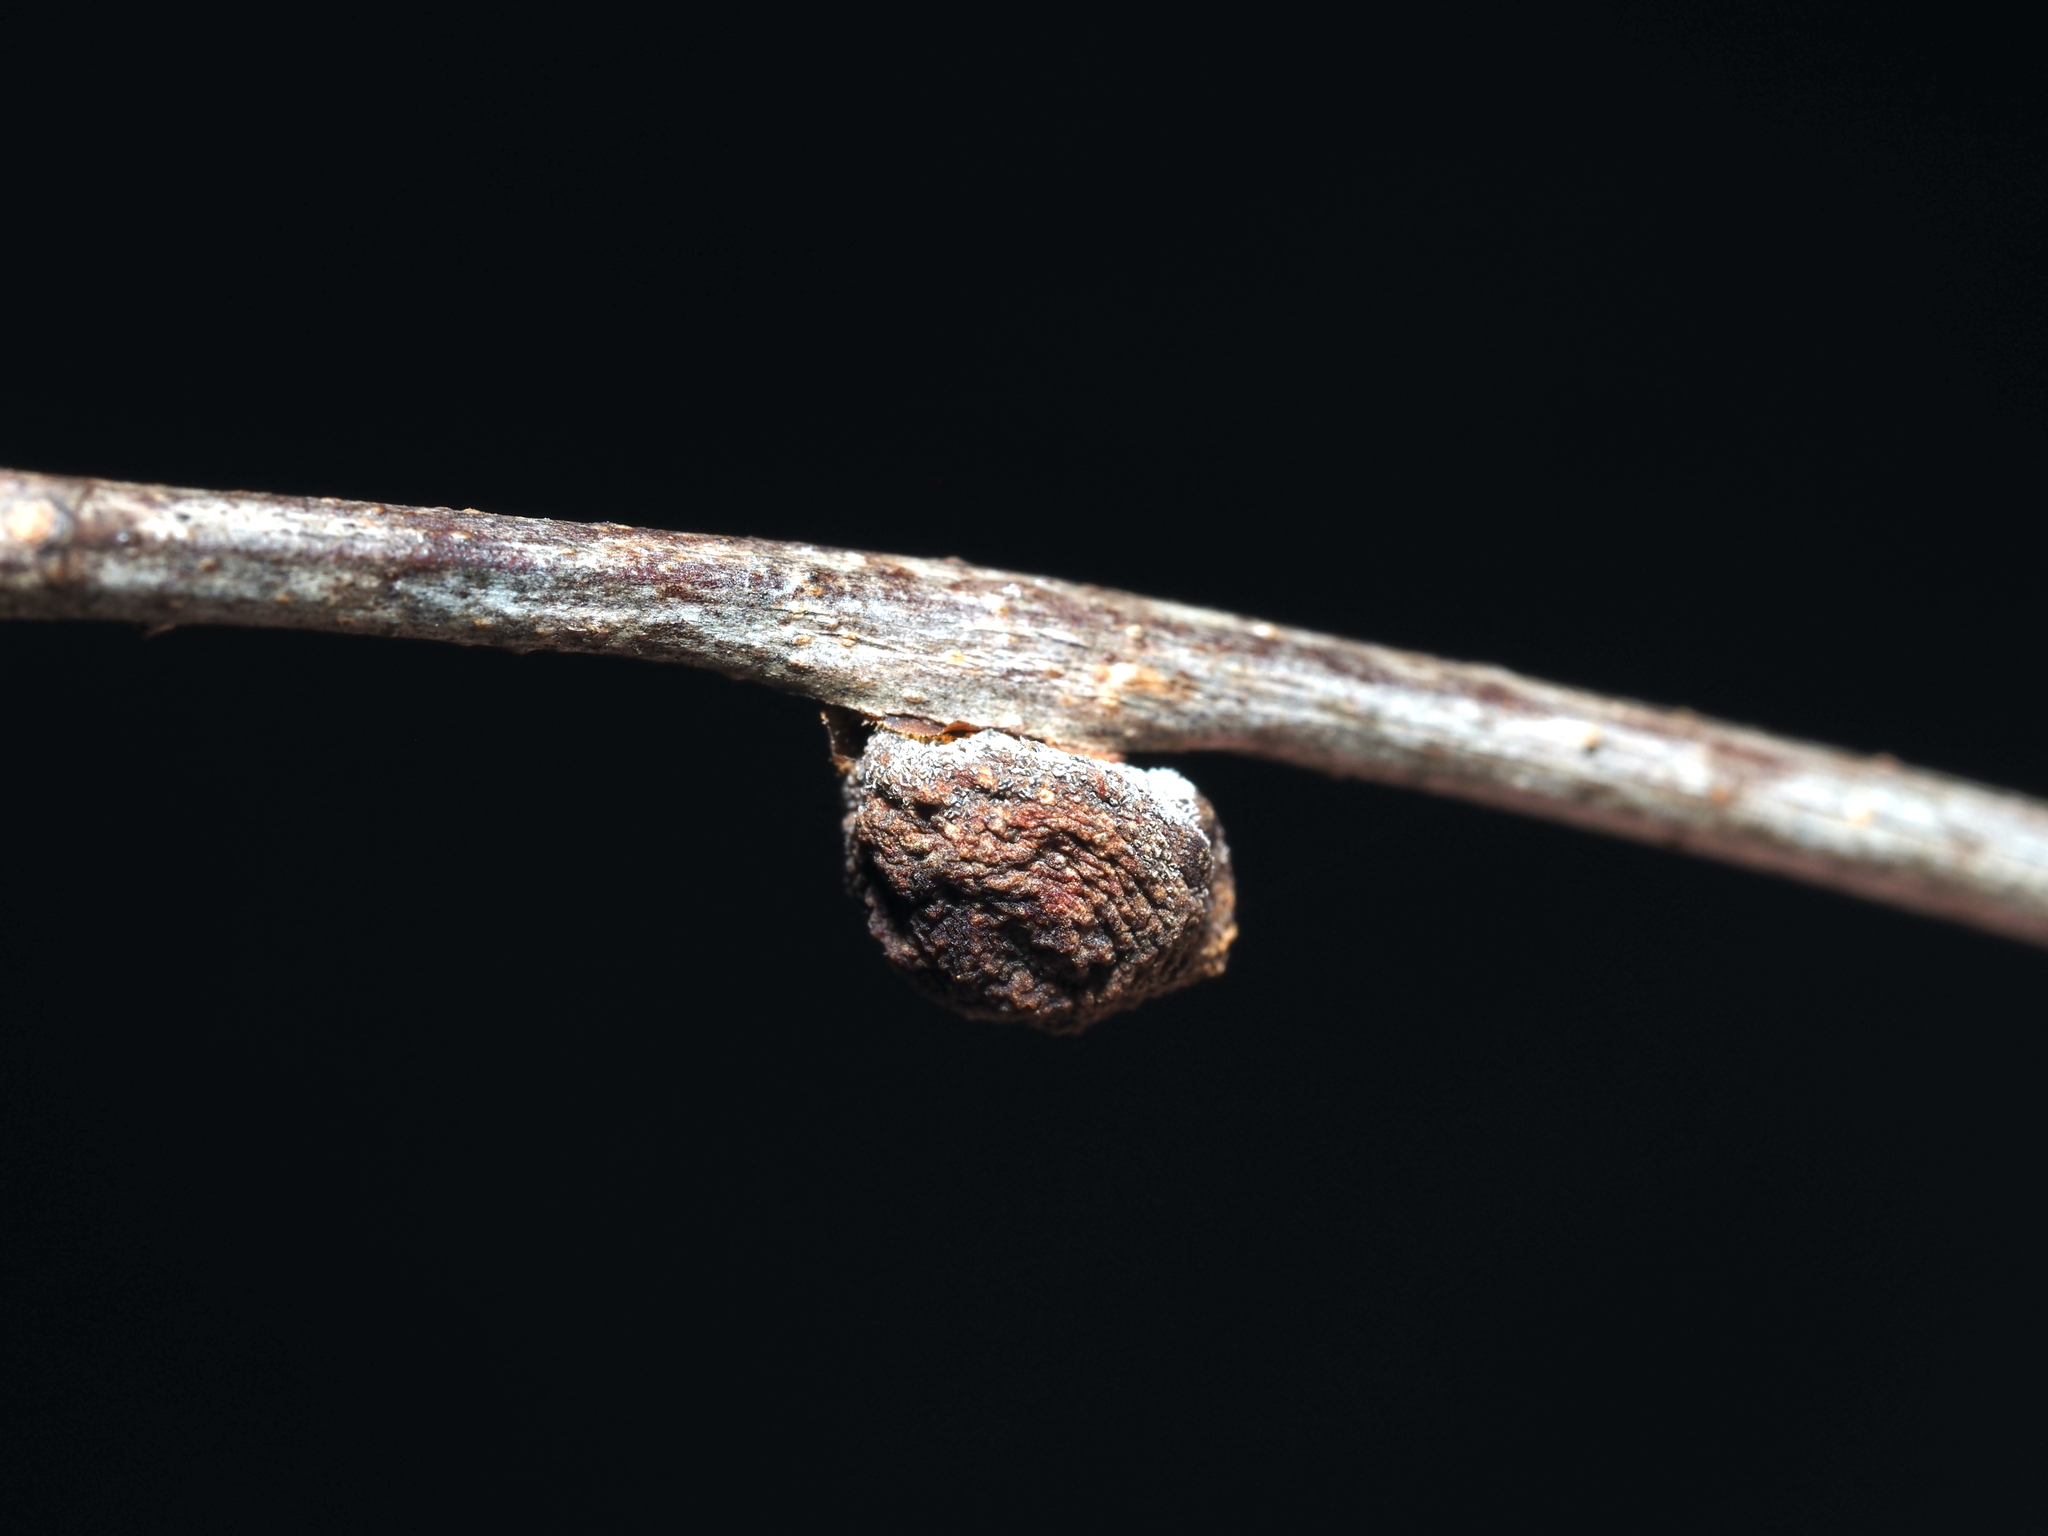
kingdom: Animalia
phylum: Arthropoda
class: Insecta
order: Hymenoptera
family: Cynipidae
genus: Kokkocynips
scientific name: Kokkocynips imbricariae
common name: Banded bullet gall wasp
